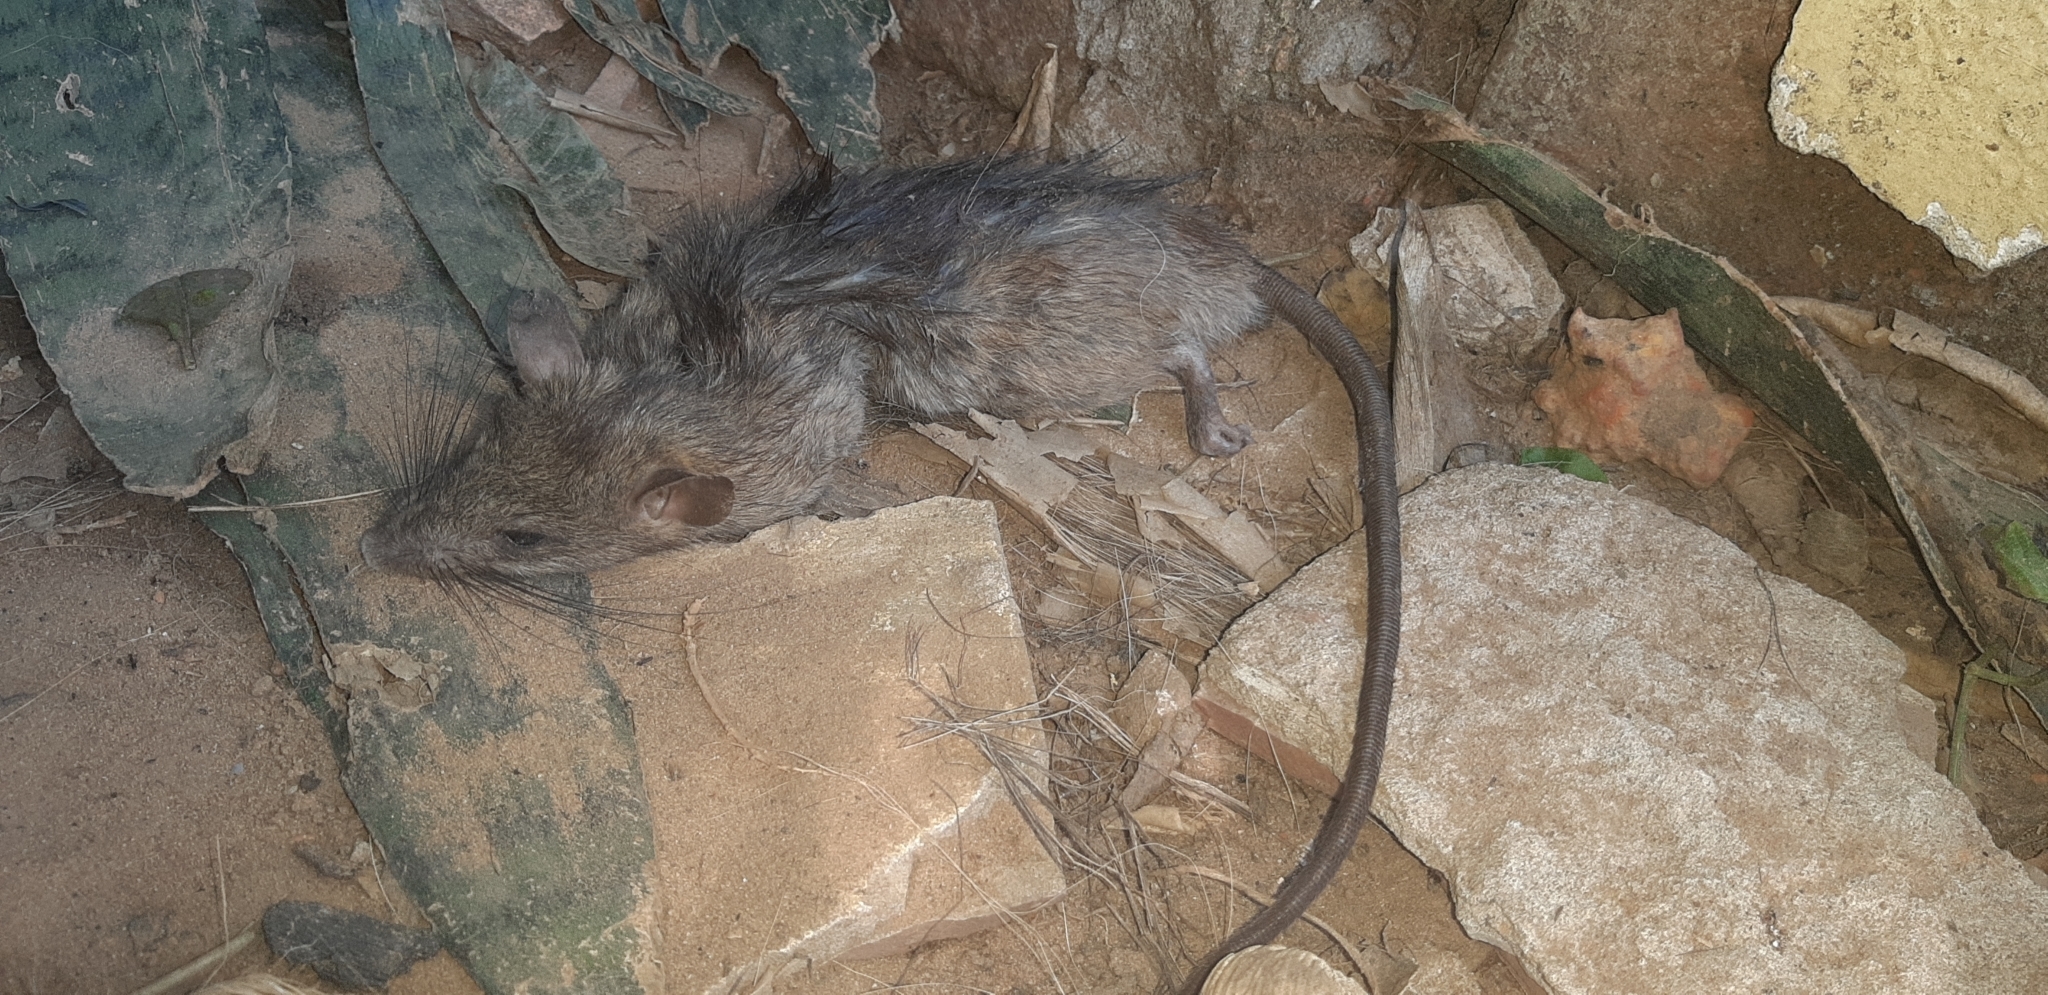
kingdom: Animalia
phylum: Chordata
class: Mammalia
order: Rodentia
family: Muridae
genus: Rattus
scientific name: Rattus rattus
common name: Black rat
